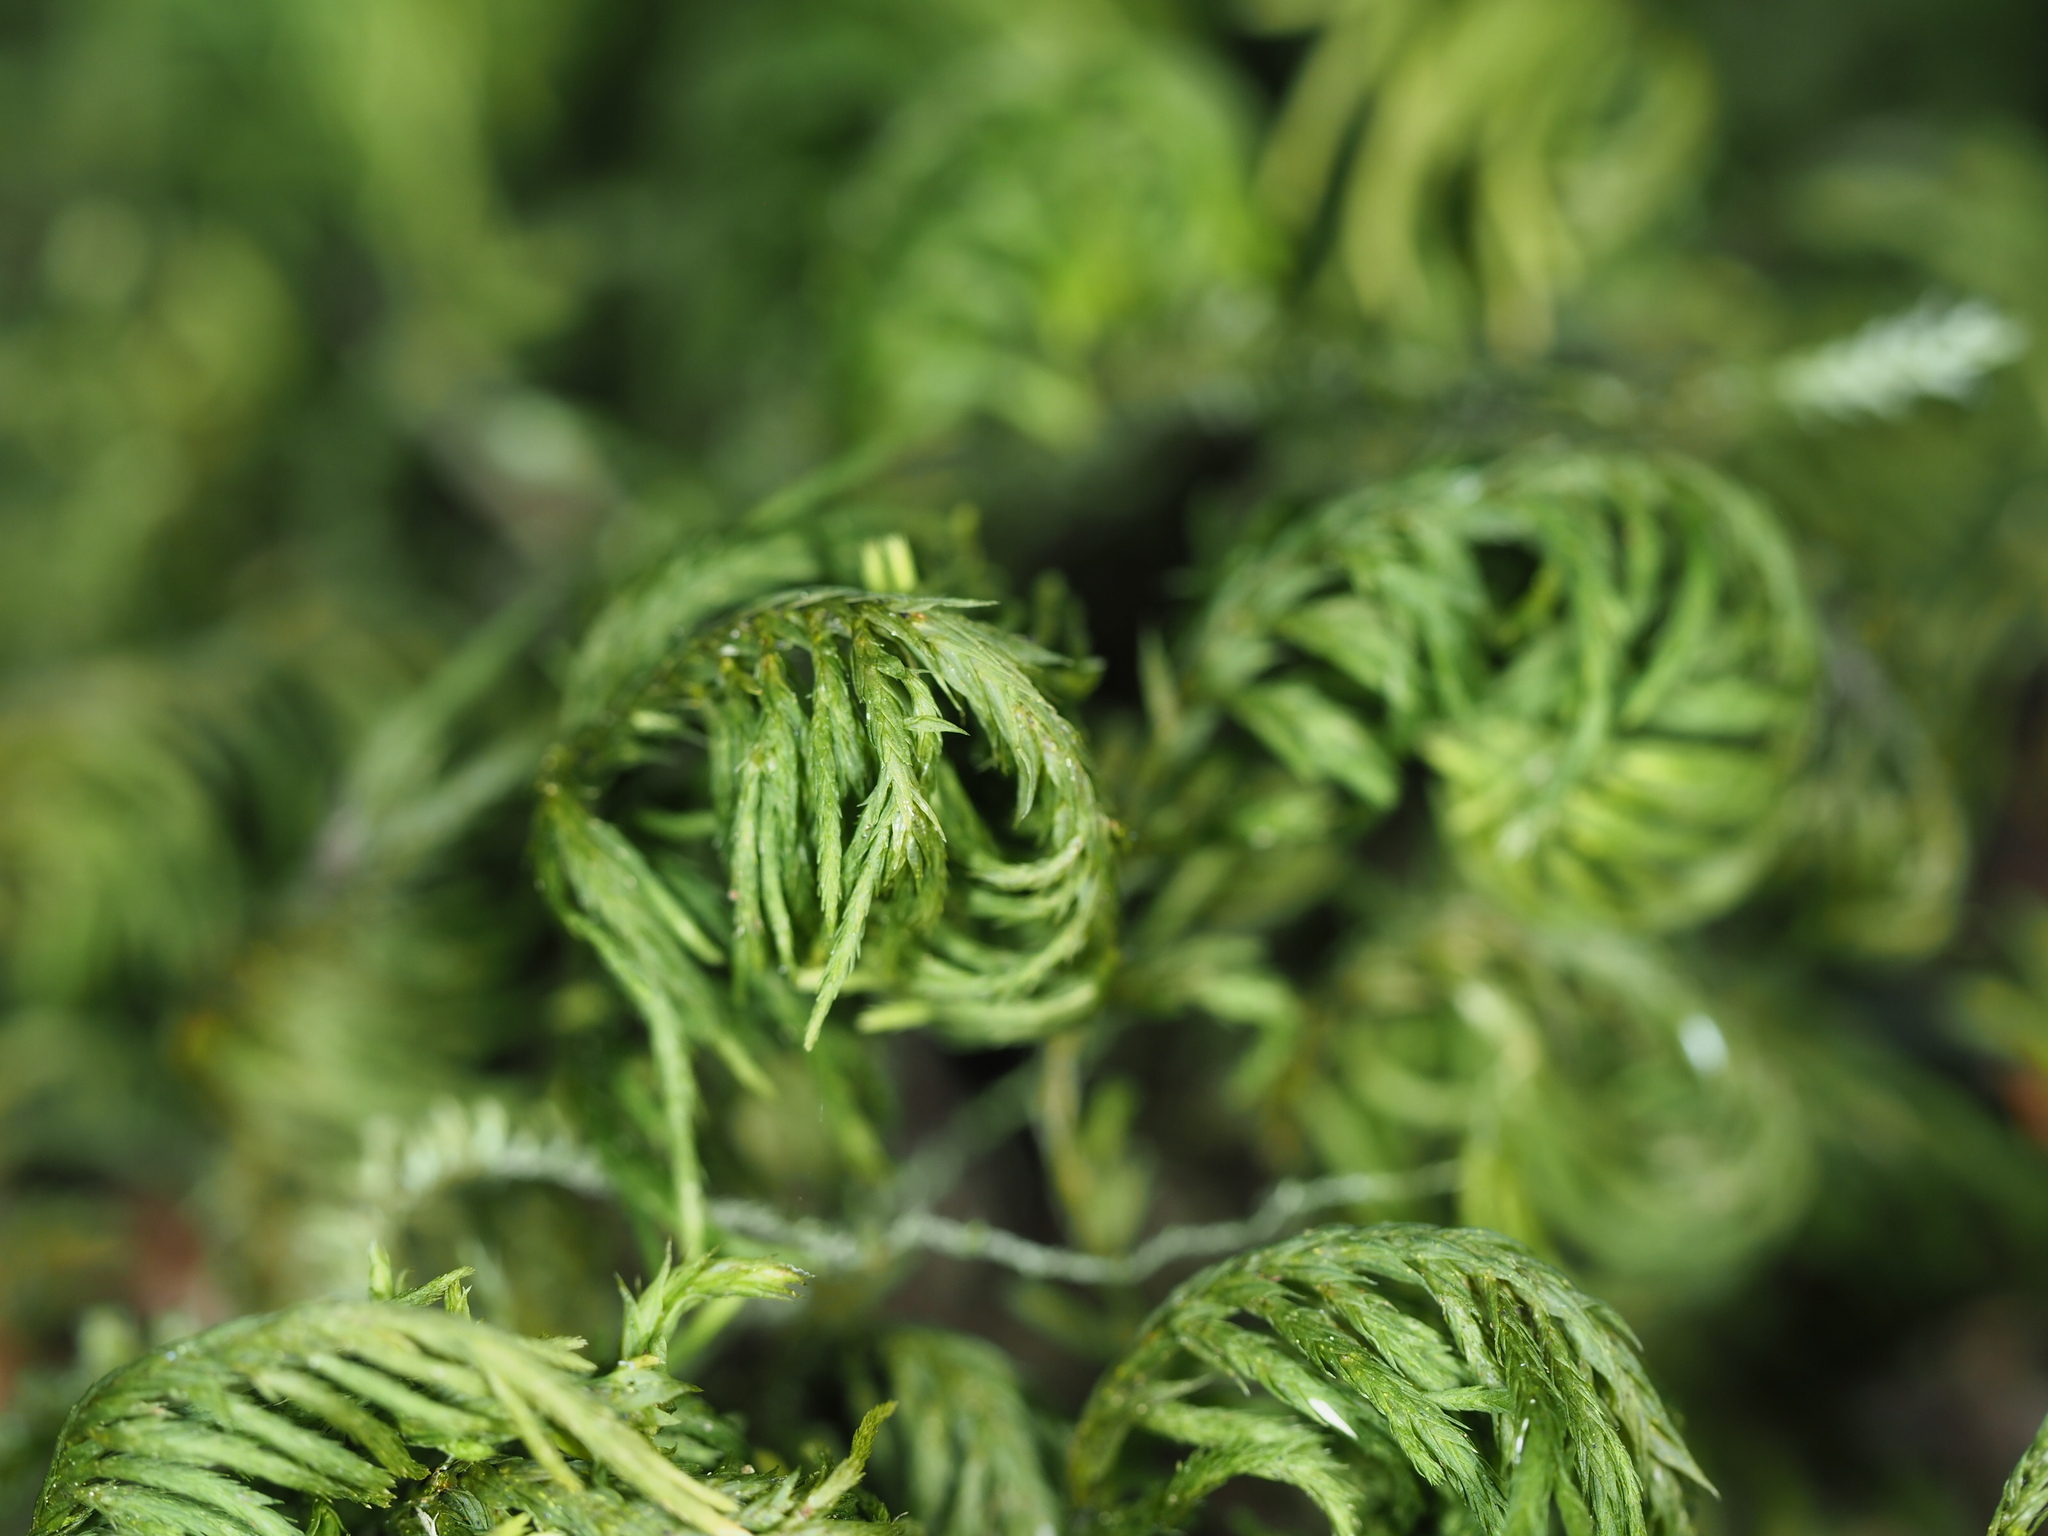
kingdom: Plantae
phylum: Bryophyta
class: Bryopsida
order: Hypnales
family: Cryphaeaceae
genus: Dendroalsia
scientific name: Dendroalsia abietina
